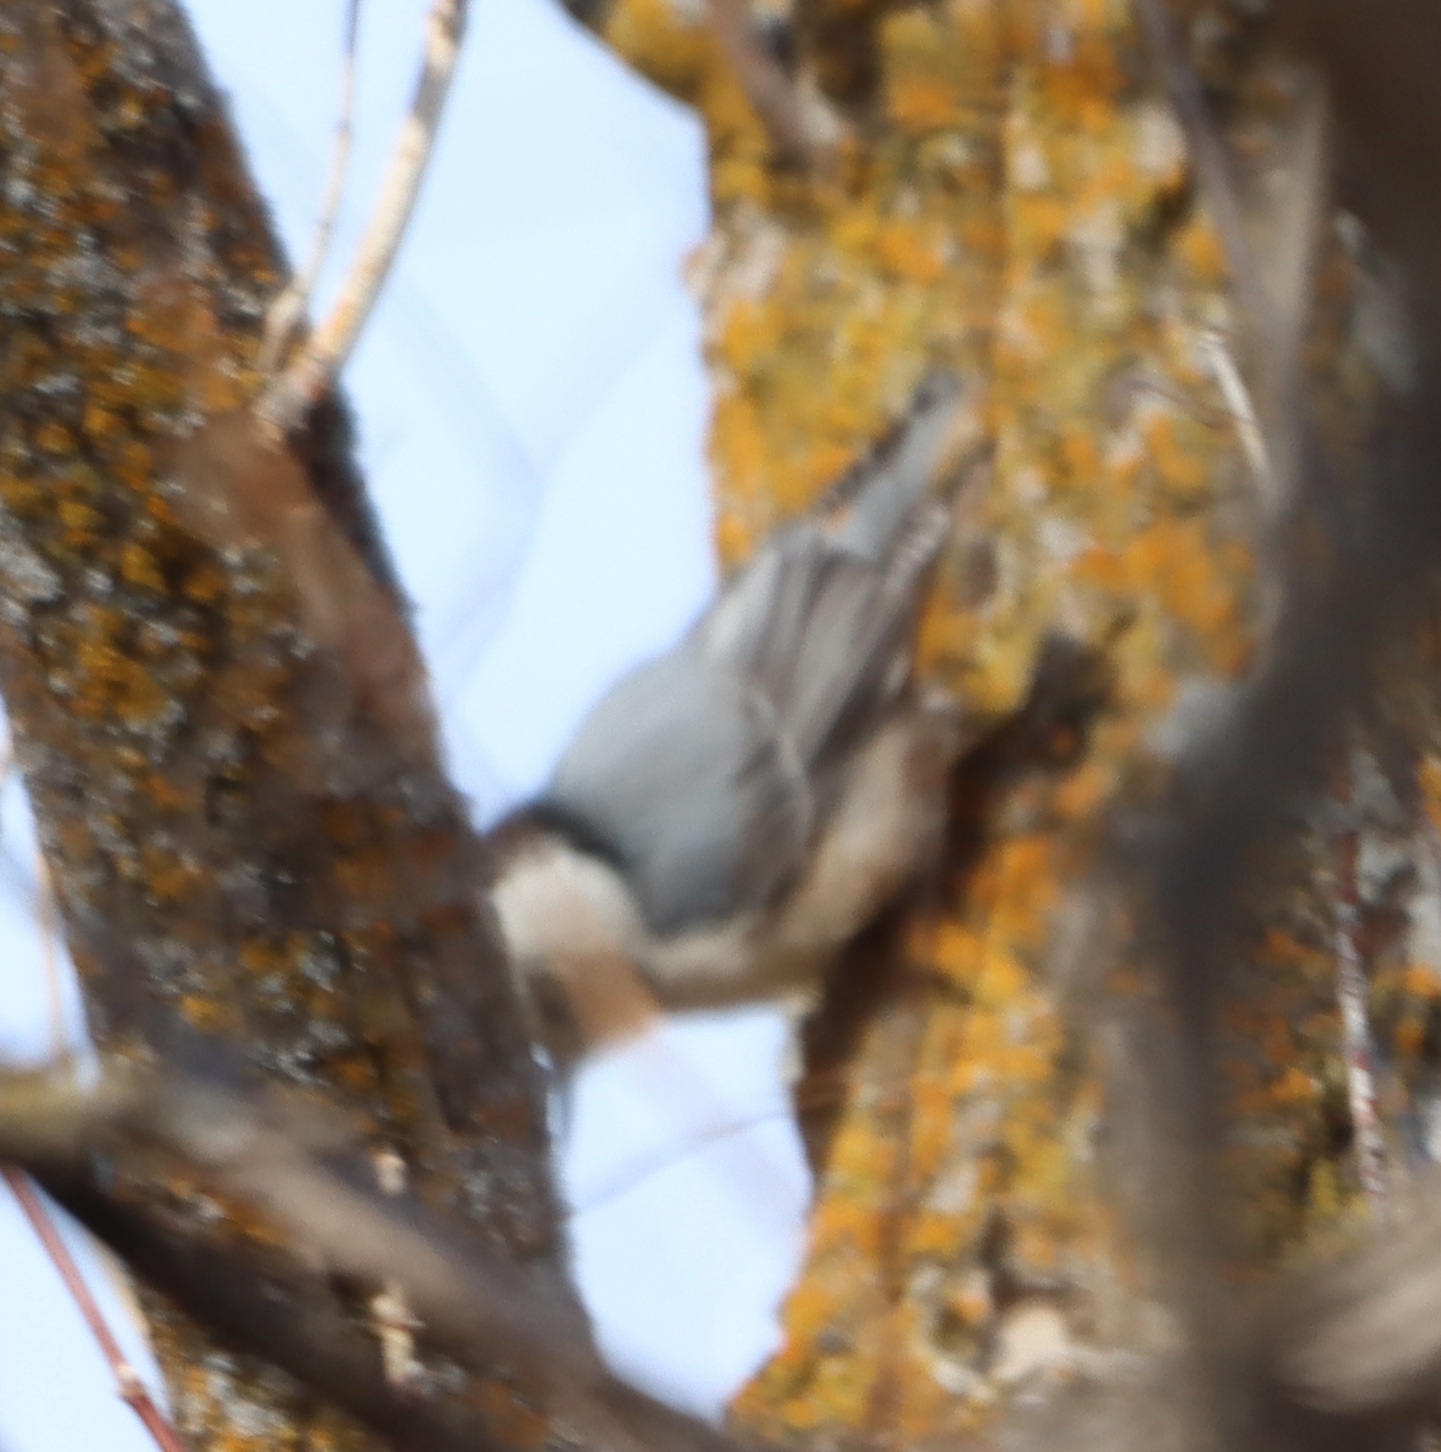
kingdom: Animalia
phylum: Chordata
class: Aves
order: Passeriformes
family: Sittidae
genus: Sitta
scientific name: Sitta carolinensis
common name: White-breasted nuthatch
